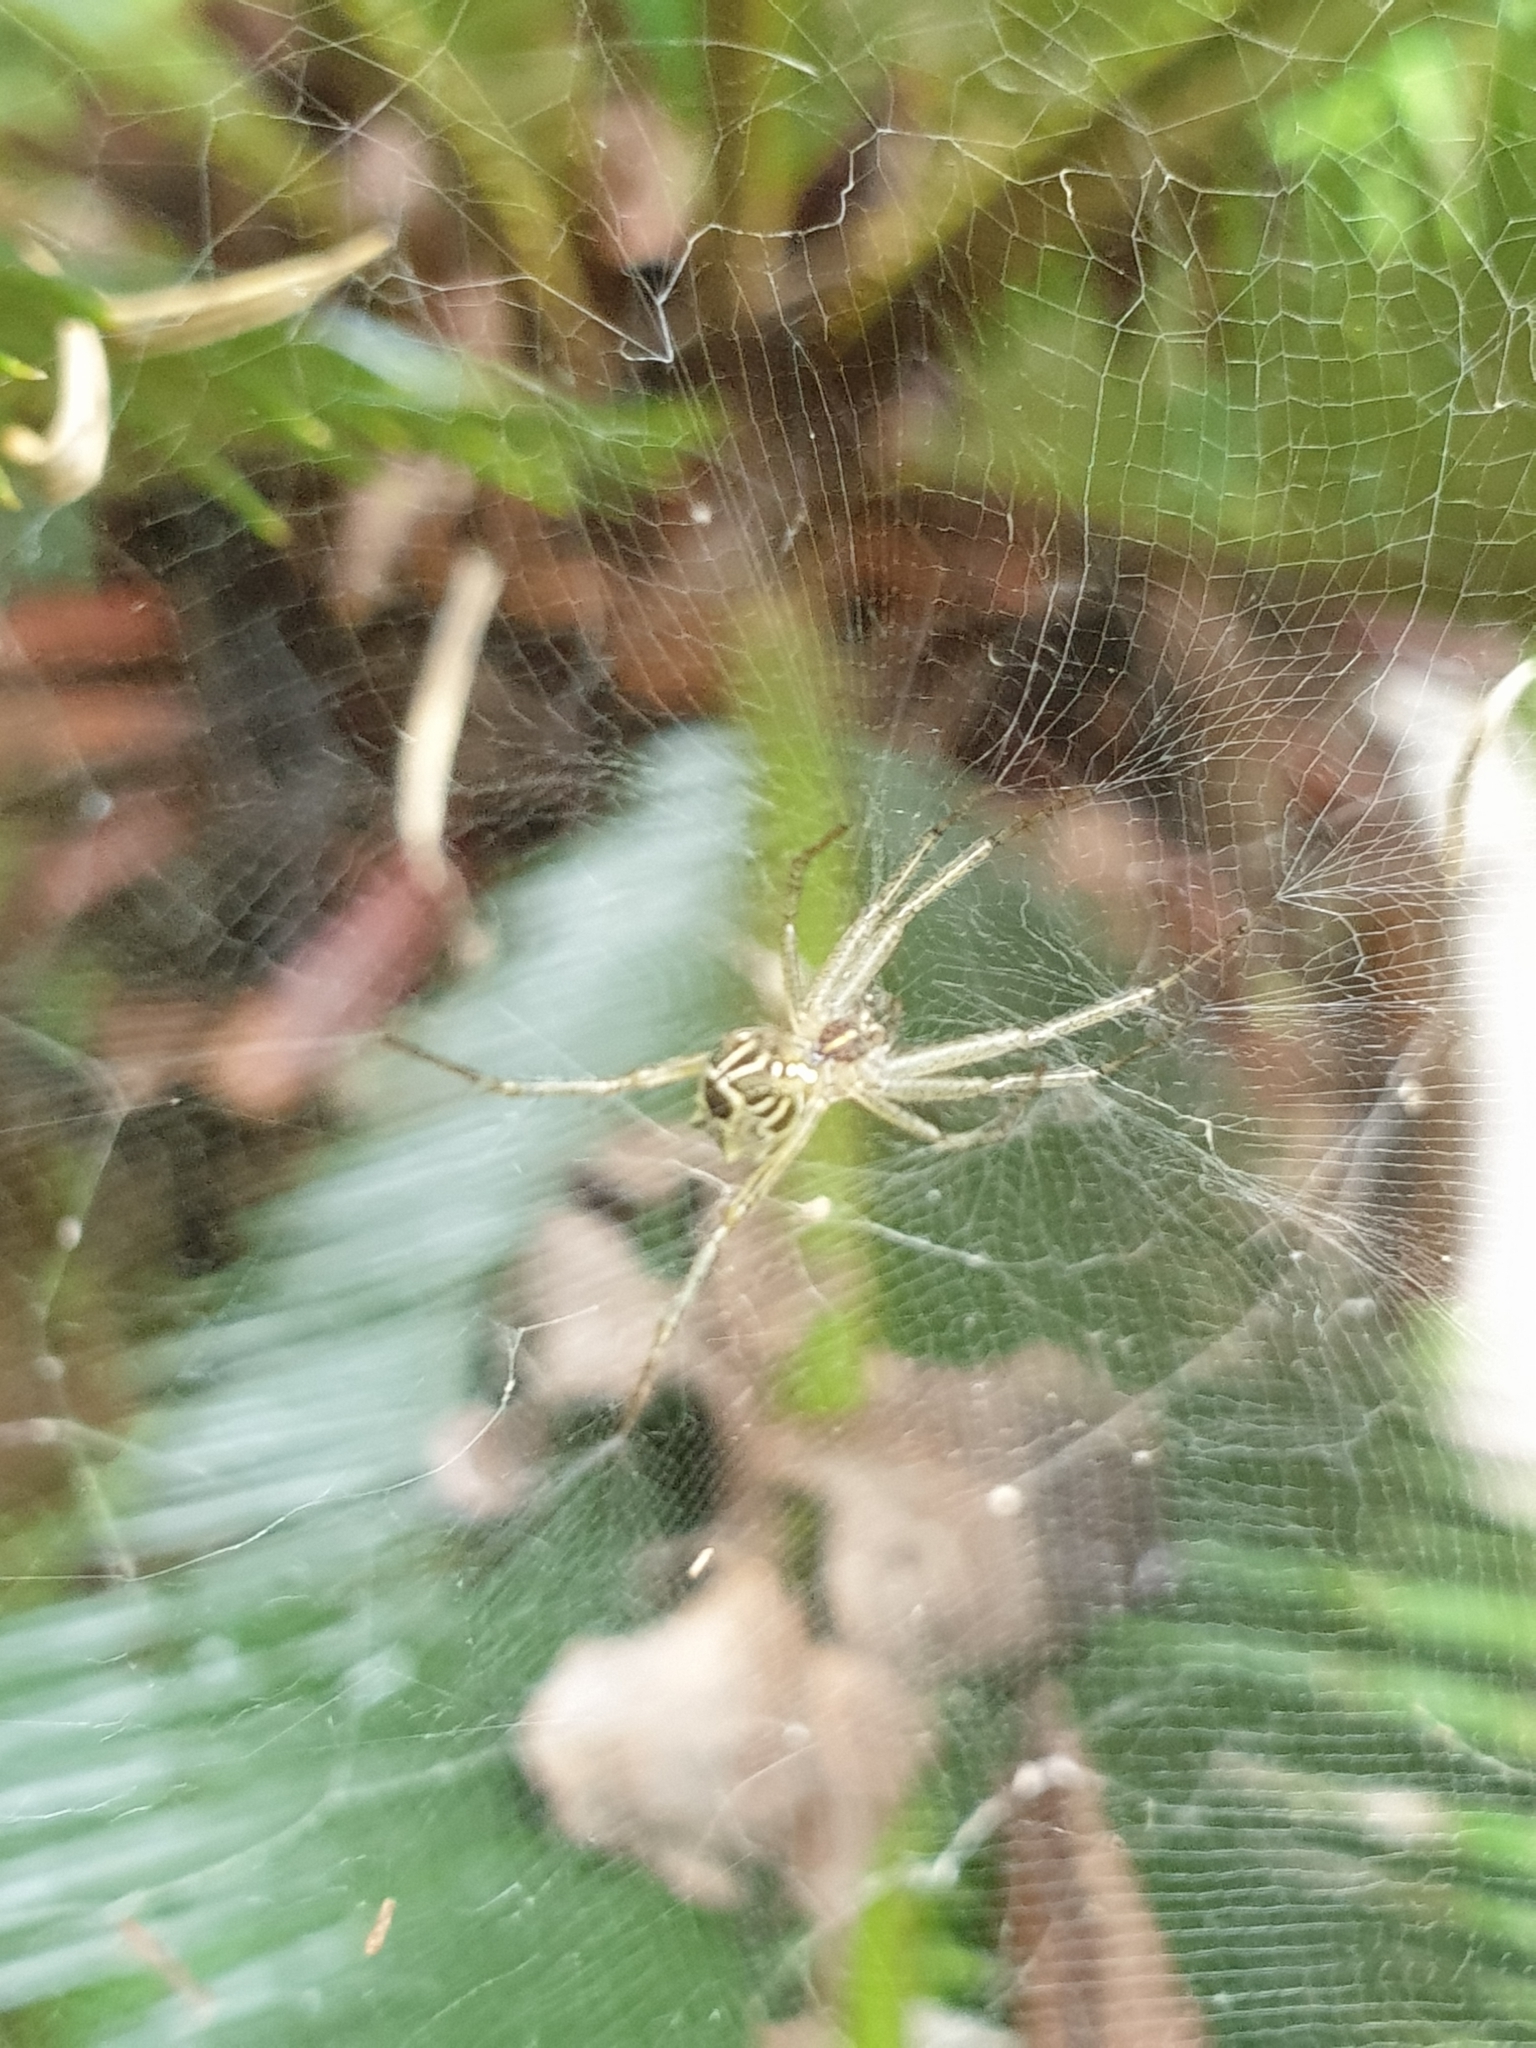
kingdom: Animalia
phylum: Arthropoda
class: Arachnida
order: Araneae
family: Araneidae
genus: Cyrtophora
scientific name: Cyrtophora cicatrosa
